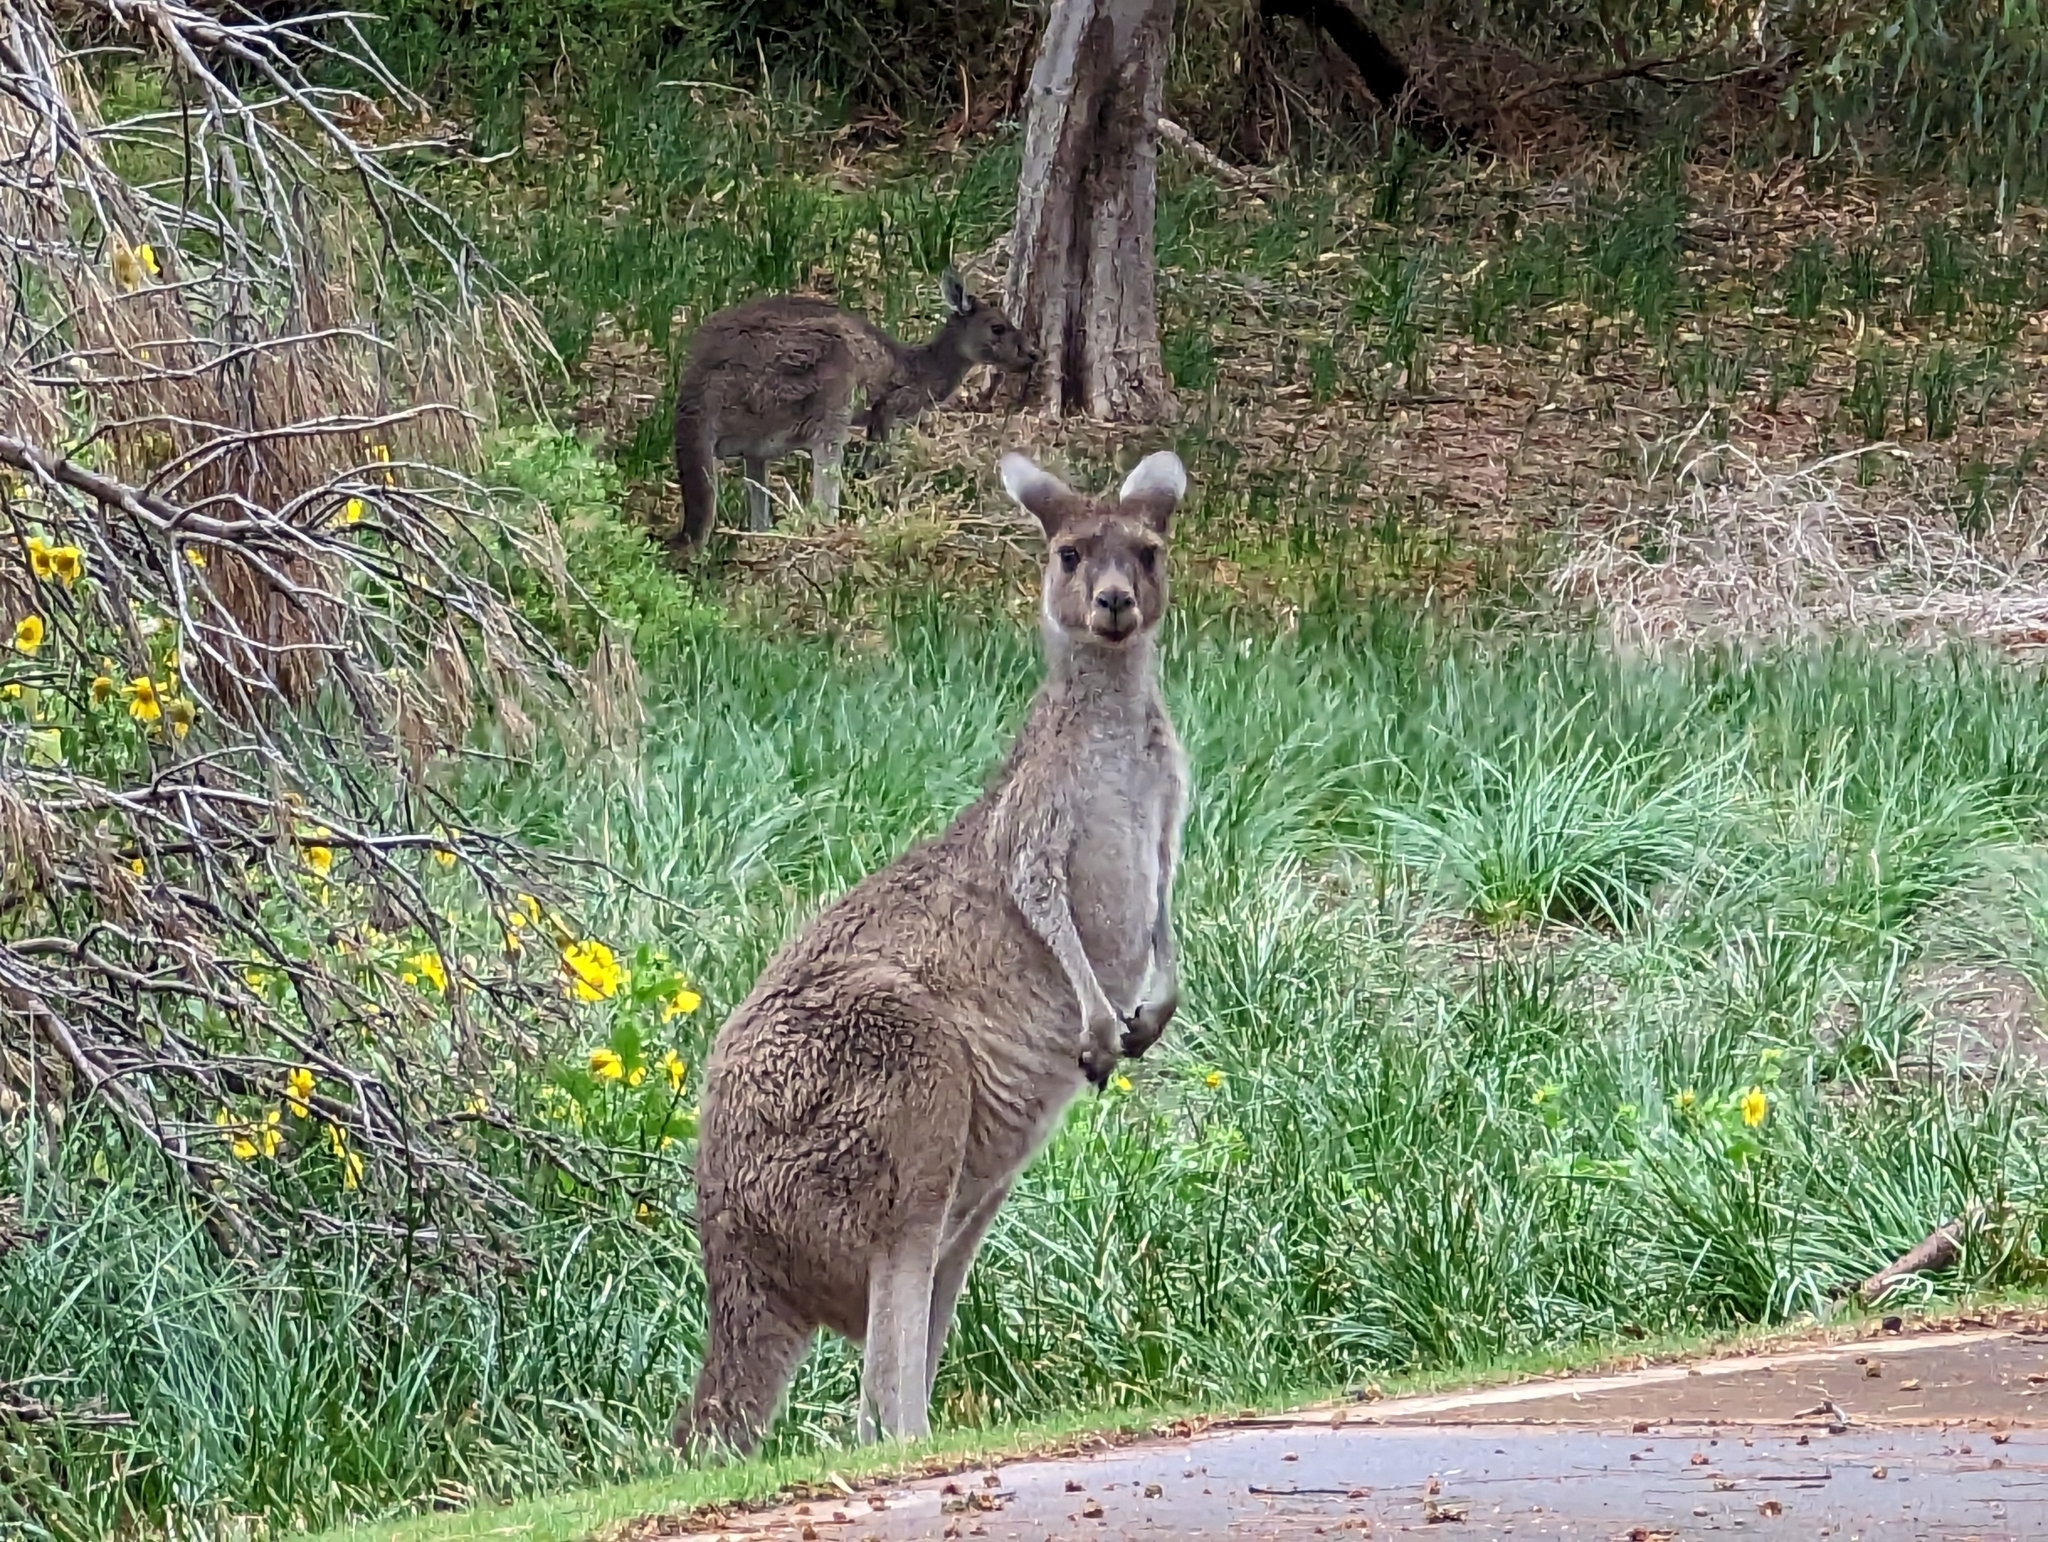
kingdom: Animalia
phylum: Chordata
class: Mammalia
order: Diprotodontia
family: Macropodidae
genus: Macropus
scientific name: Macropus fuliginosus
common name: Western grey kangaroo
